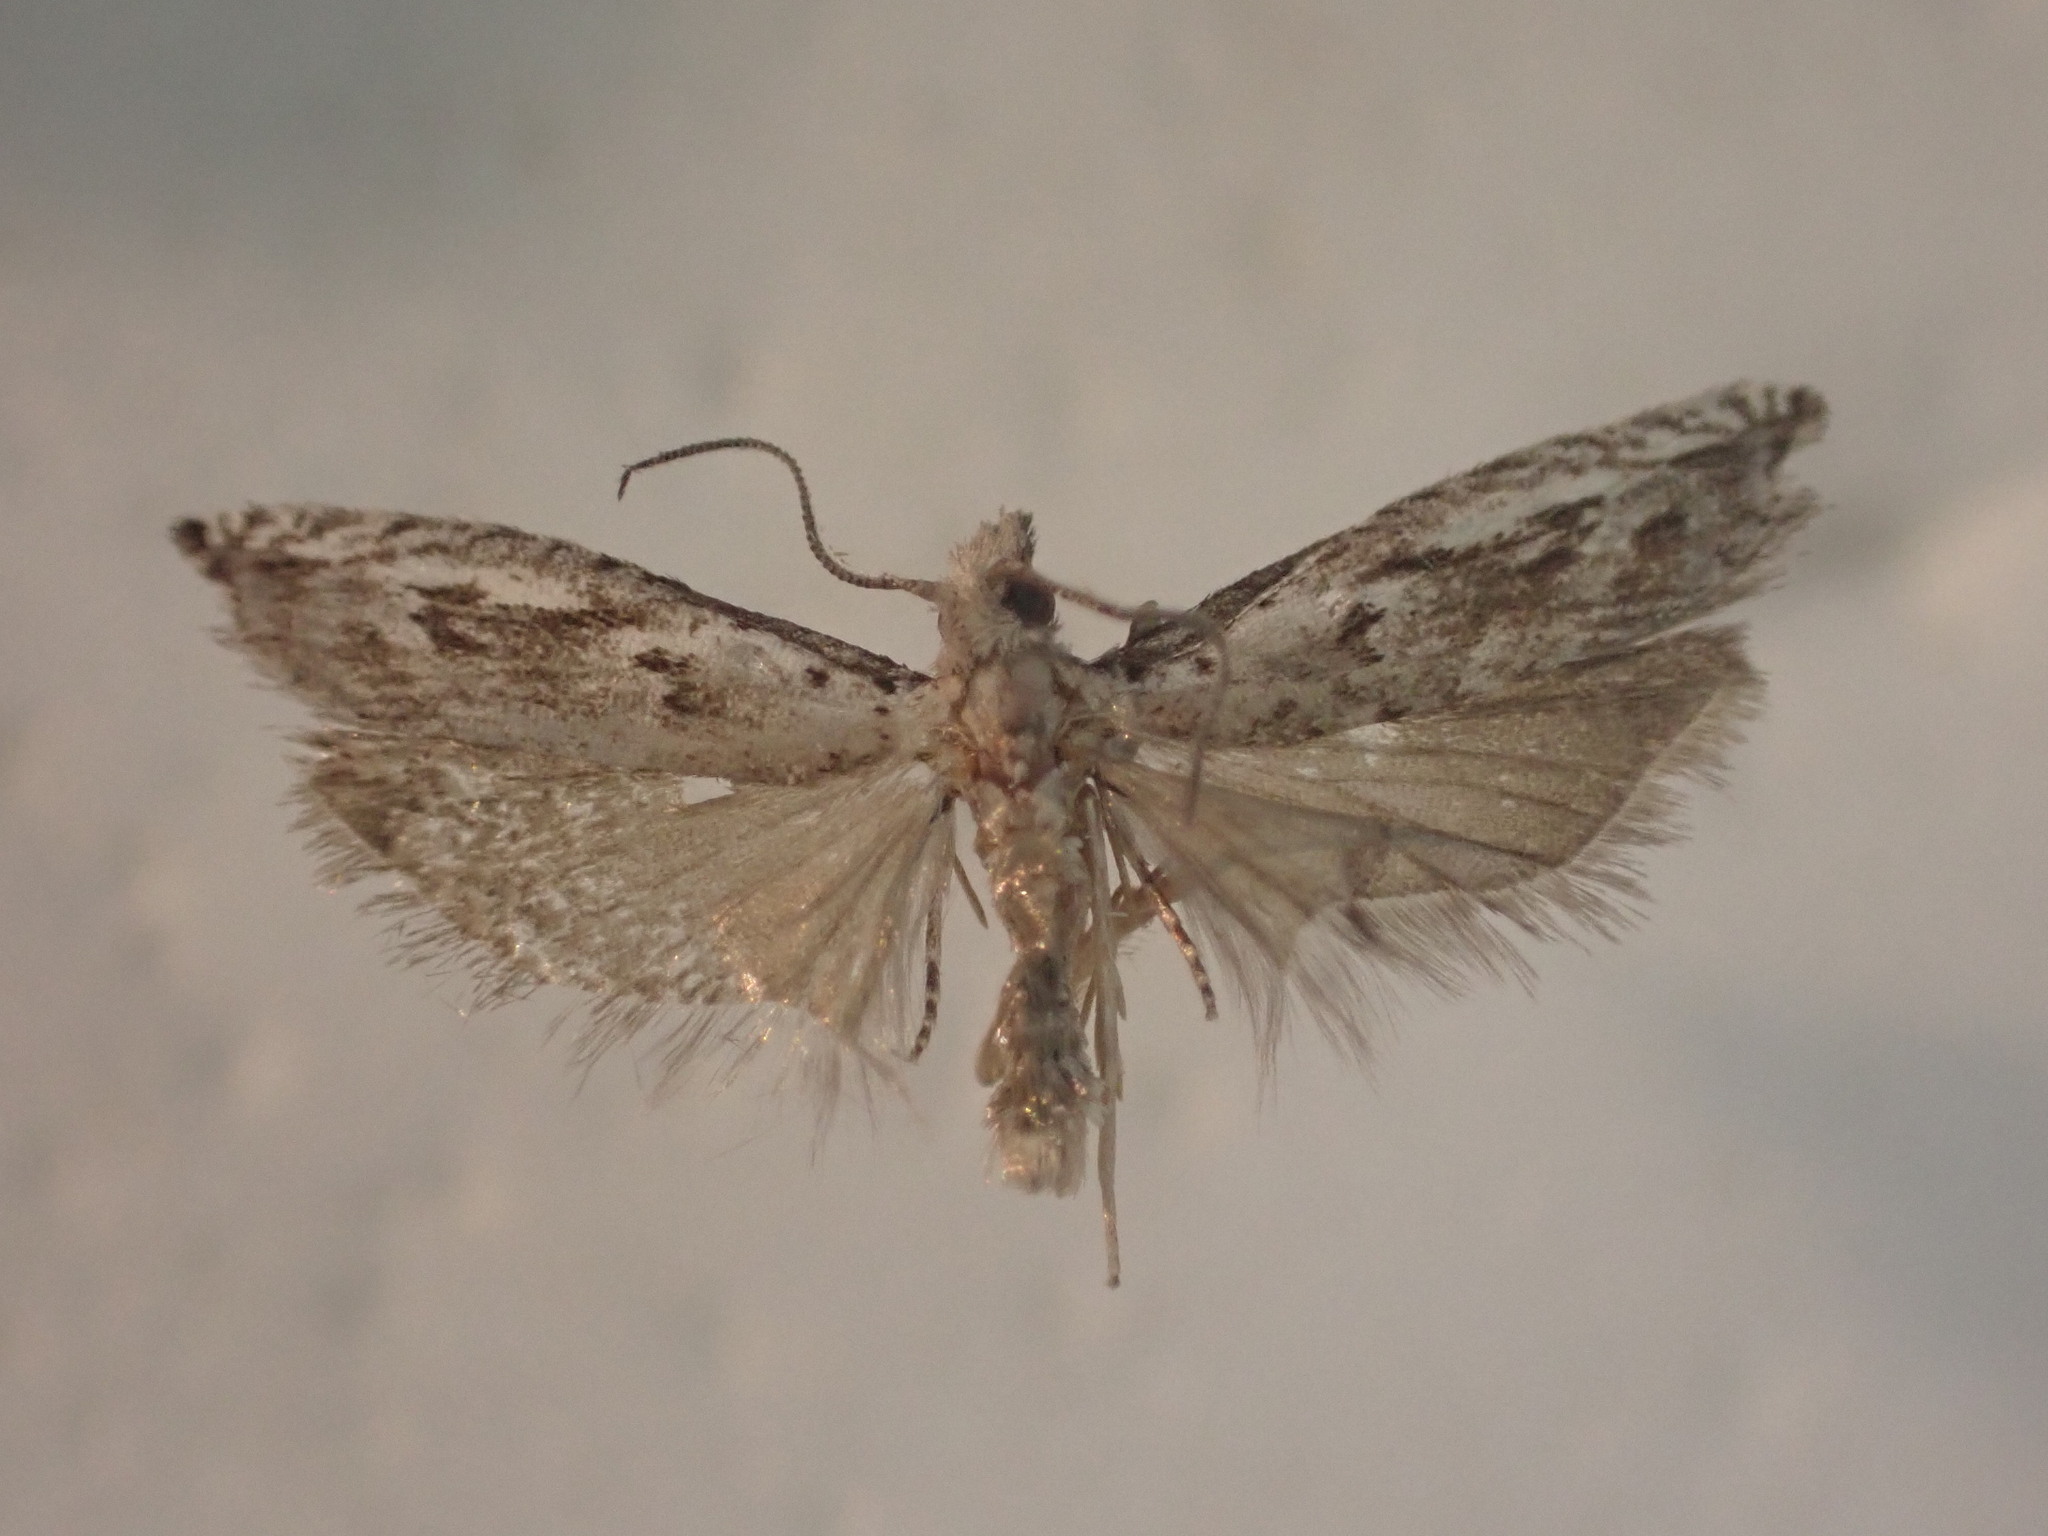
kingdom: Animalia
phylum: Arthropoda
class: Insecta
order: Lepidoptera
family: Tortricidae
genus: Holocola
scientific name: Holocola zopherana
